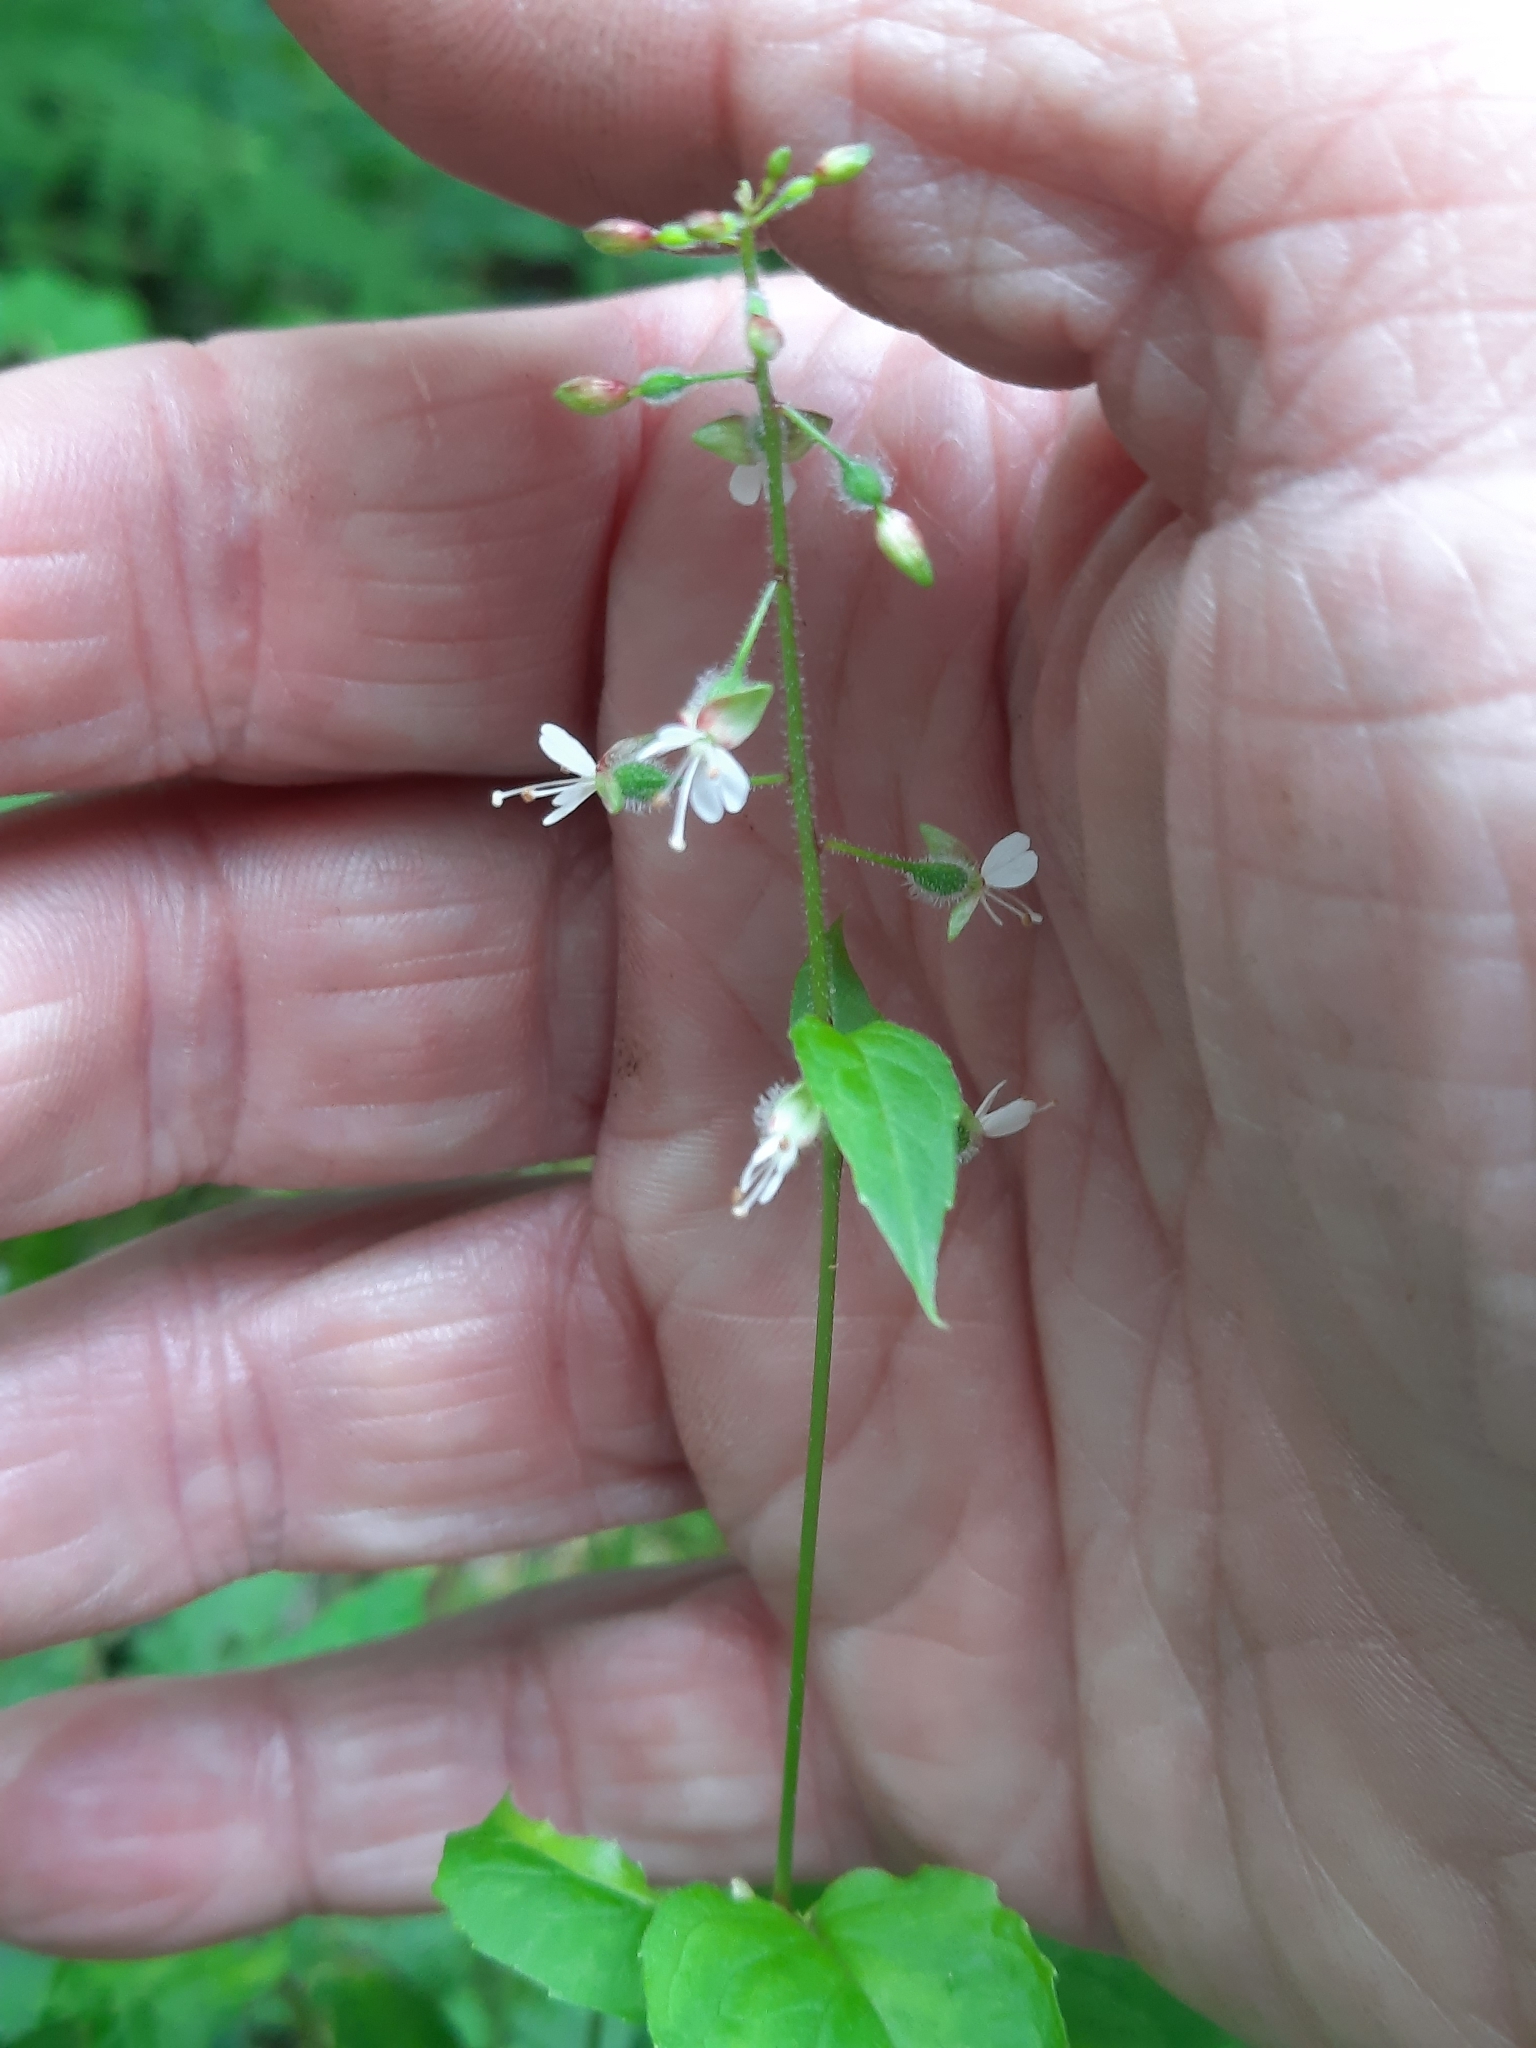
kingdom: Plantae
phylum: Tracheophyta
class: Magnoliopsida
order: Myrtales
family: Onagraceae
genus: Circaea
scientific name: Circaea canadensis
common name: Broad-leaved enchanter's nightshade
